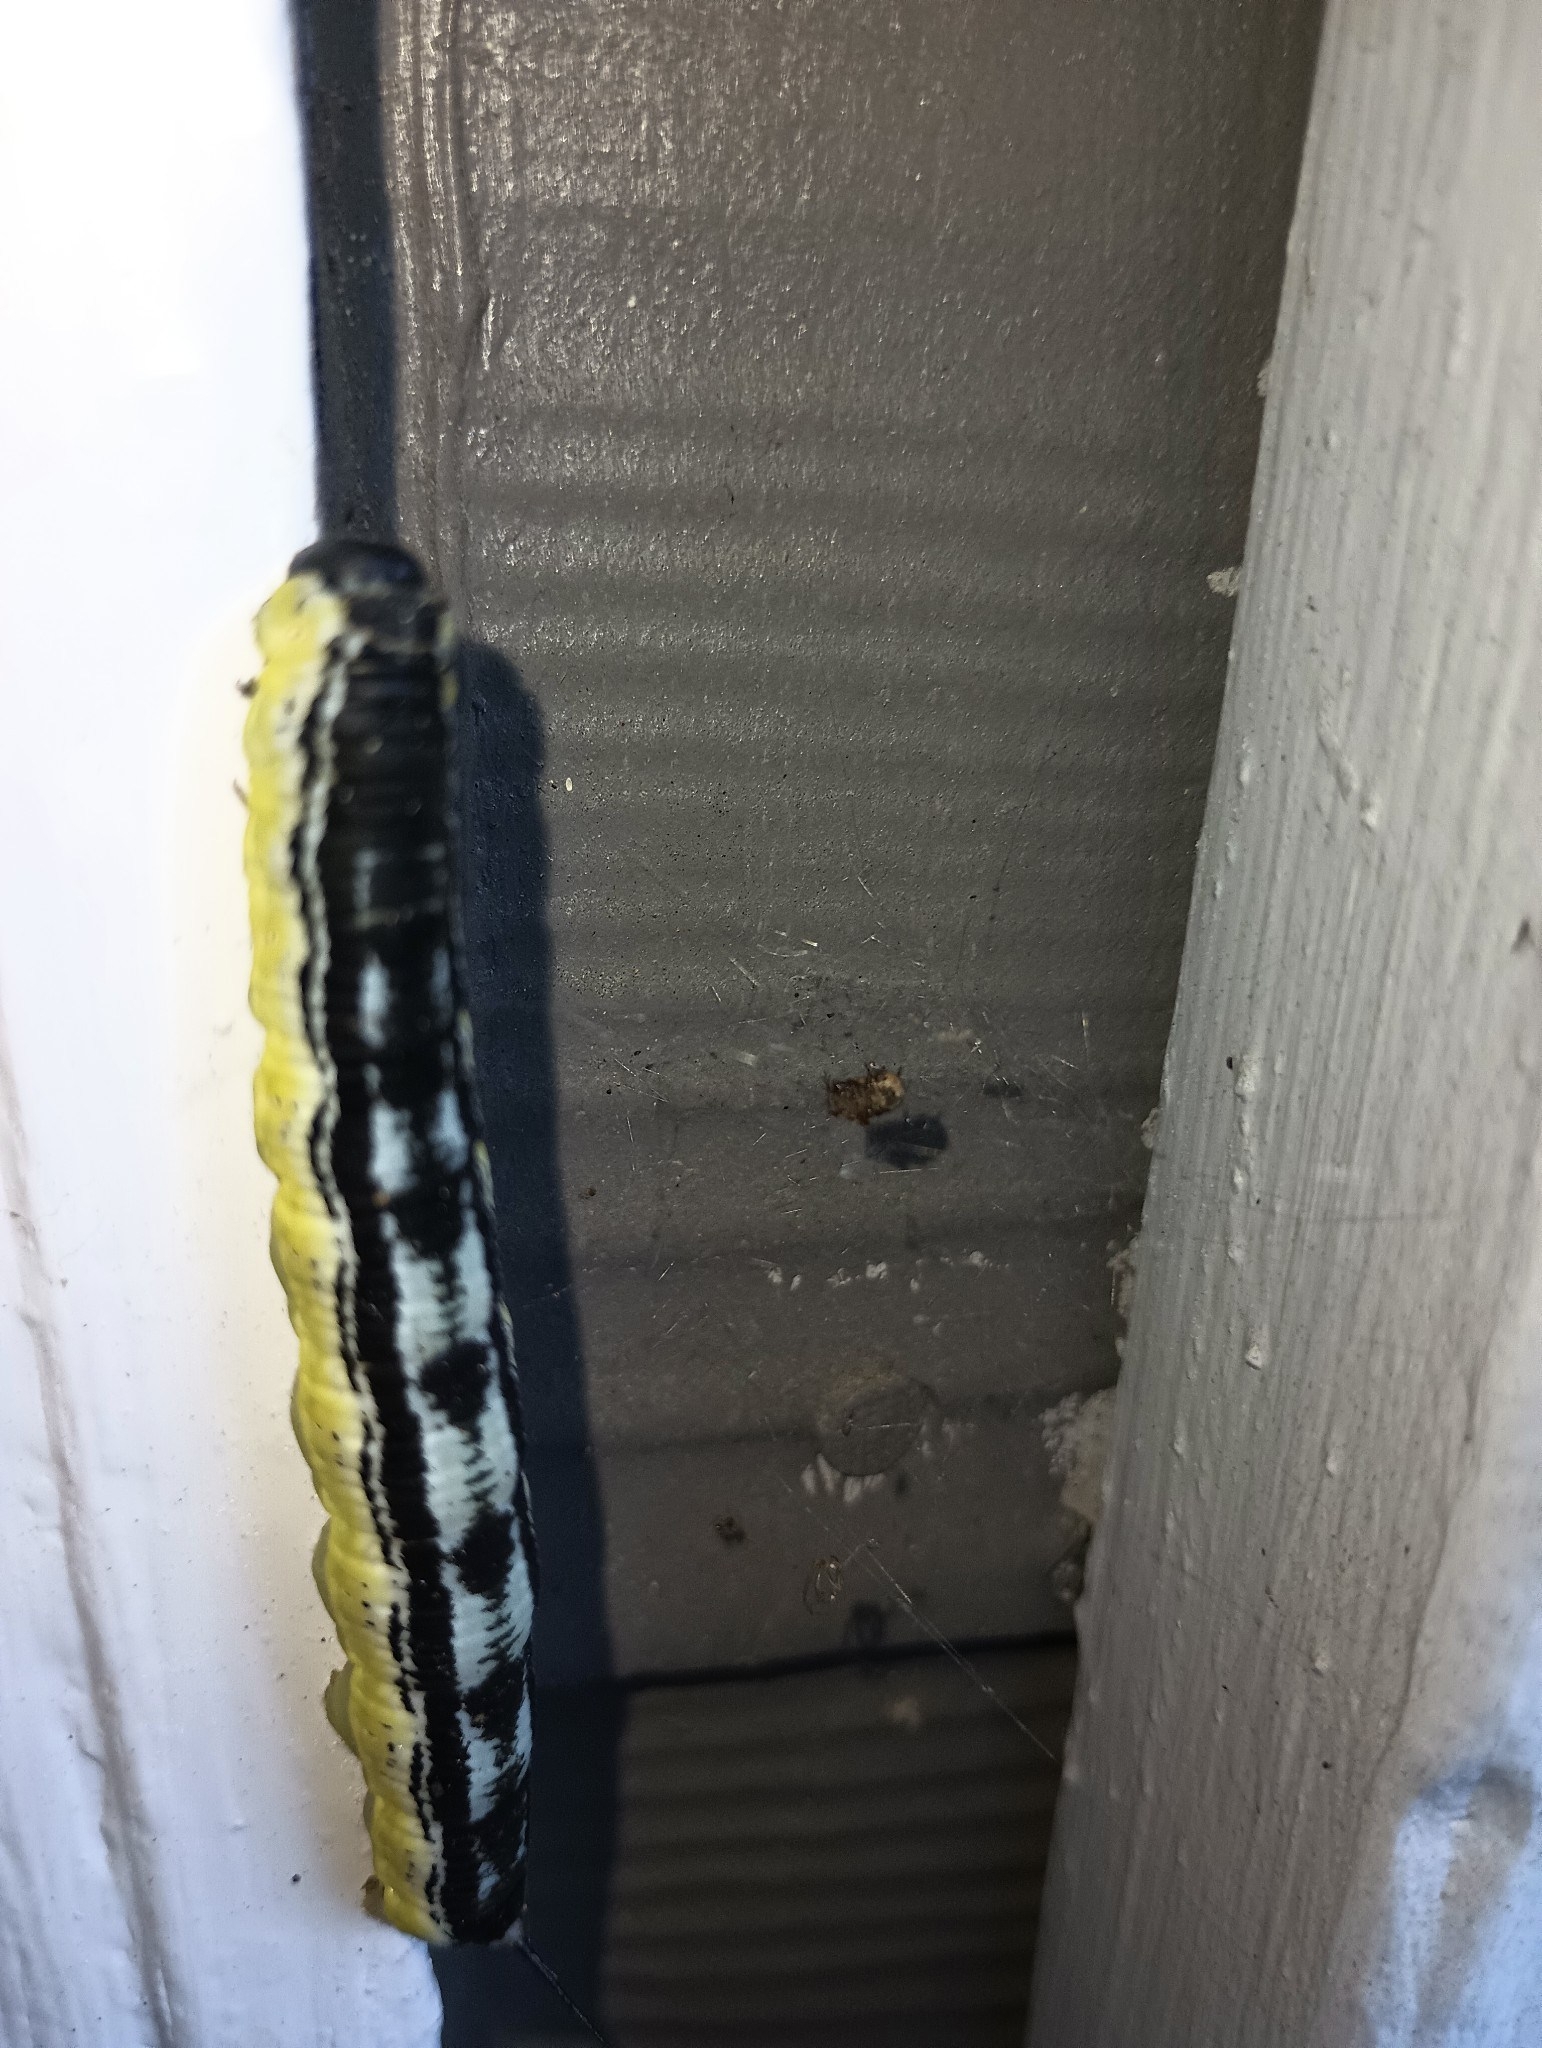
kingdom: Animalia
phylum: Arthropoda
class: Insecta
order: Lepidoptera
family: Sphingidae
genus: Ceratomia
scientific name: Ceratomia catalpae
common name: Catalpa hornworm
